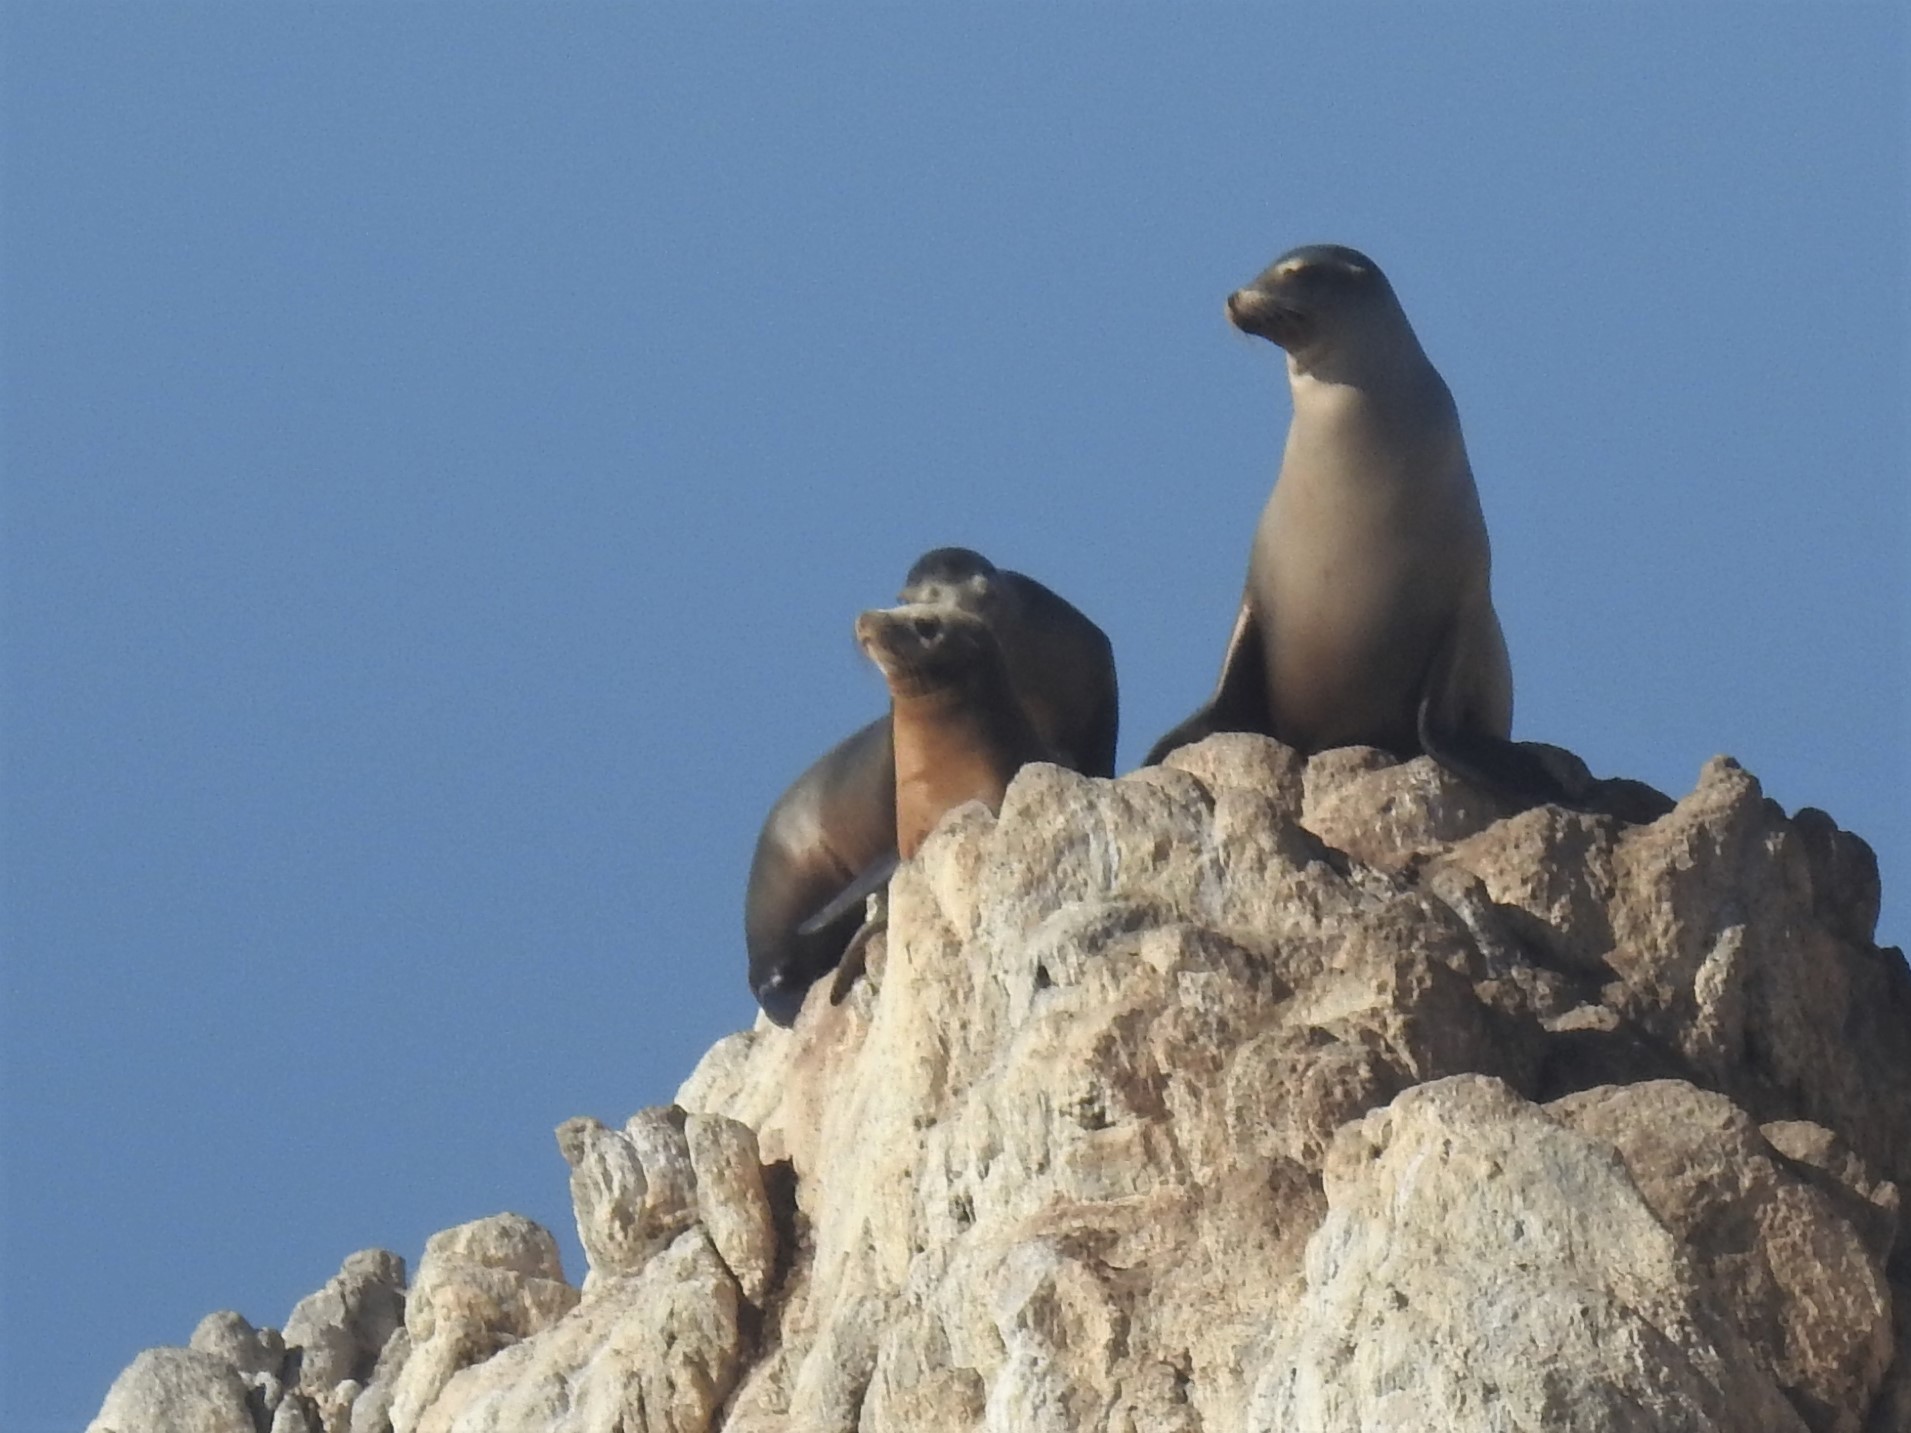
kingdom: Animalia
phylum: Chordata
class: Mammalia
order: Carnivora
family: Otariidae
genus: Zalophus
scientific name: Zalophus californianus
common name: California sea lion
